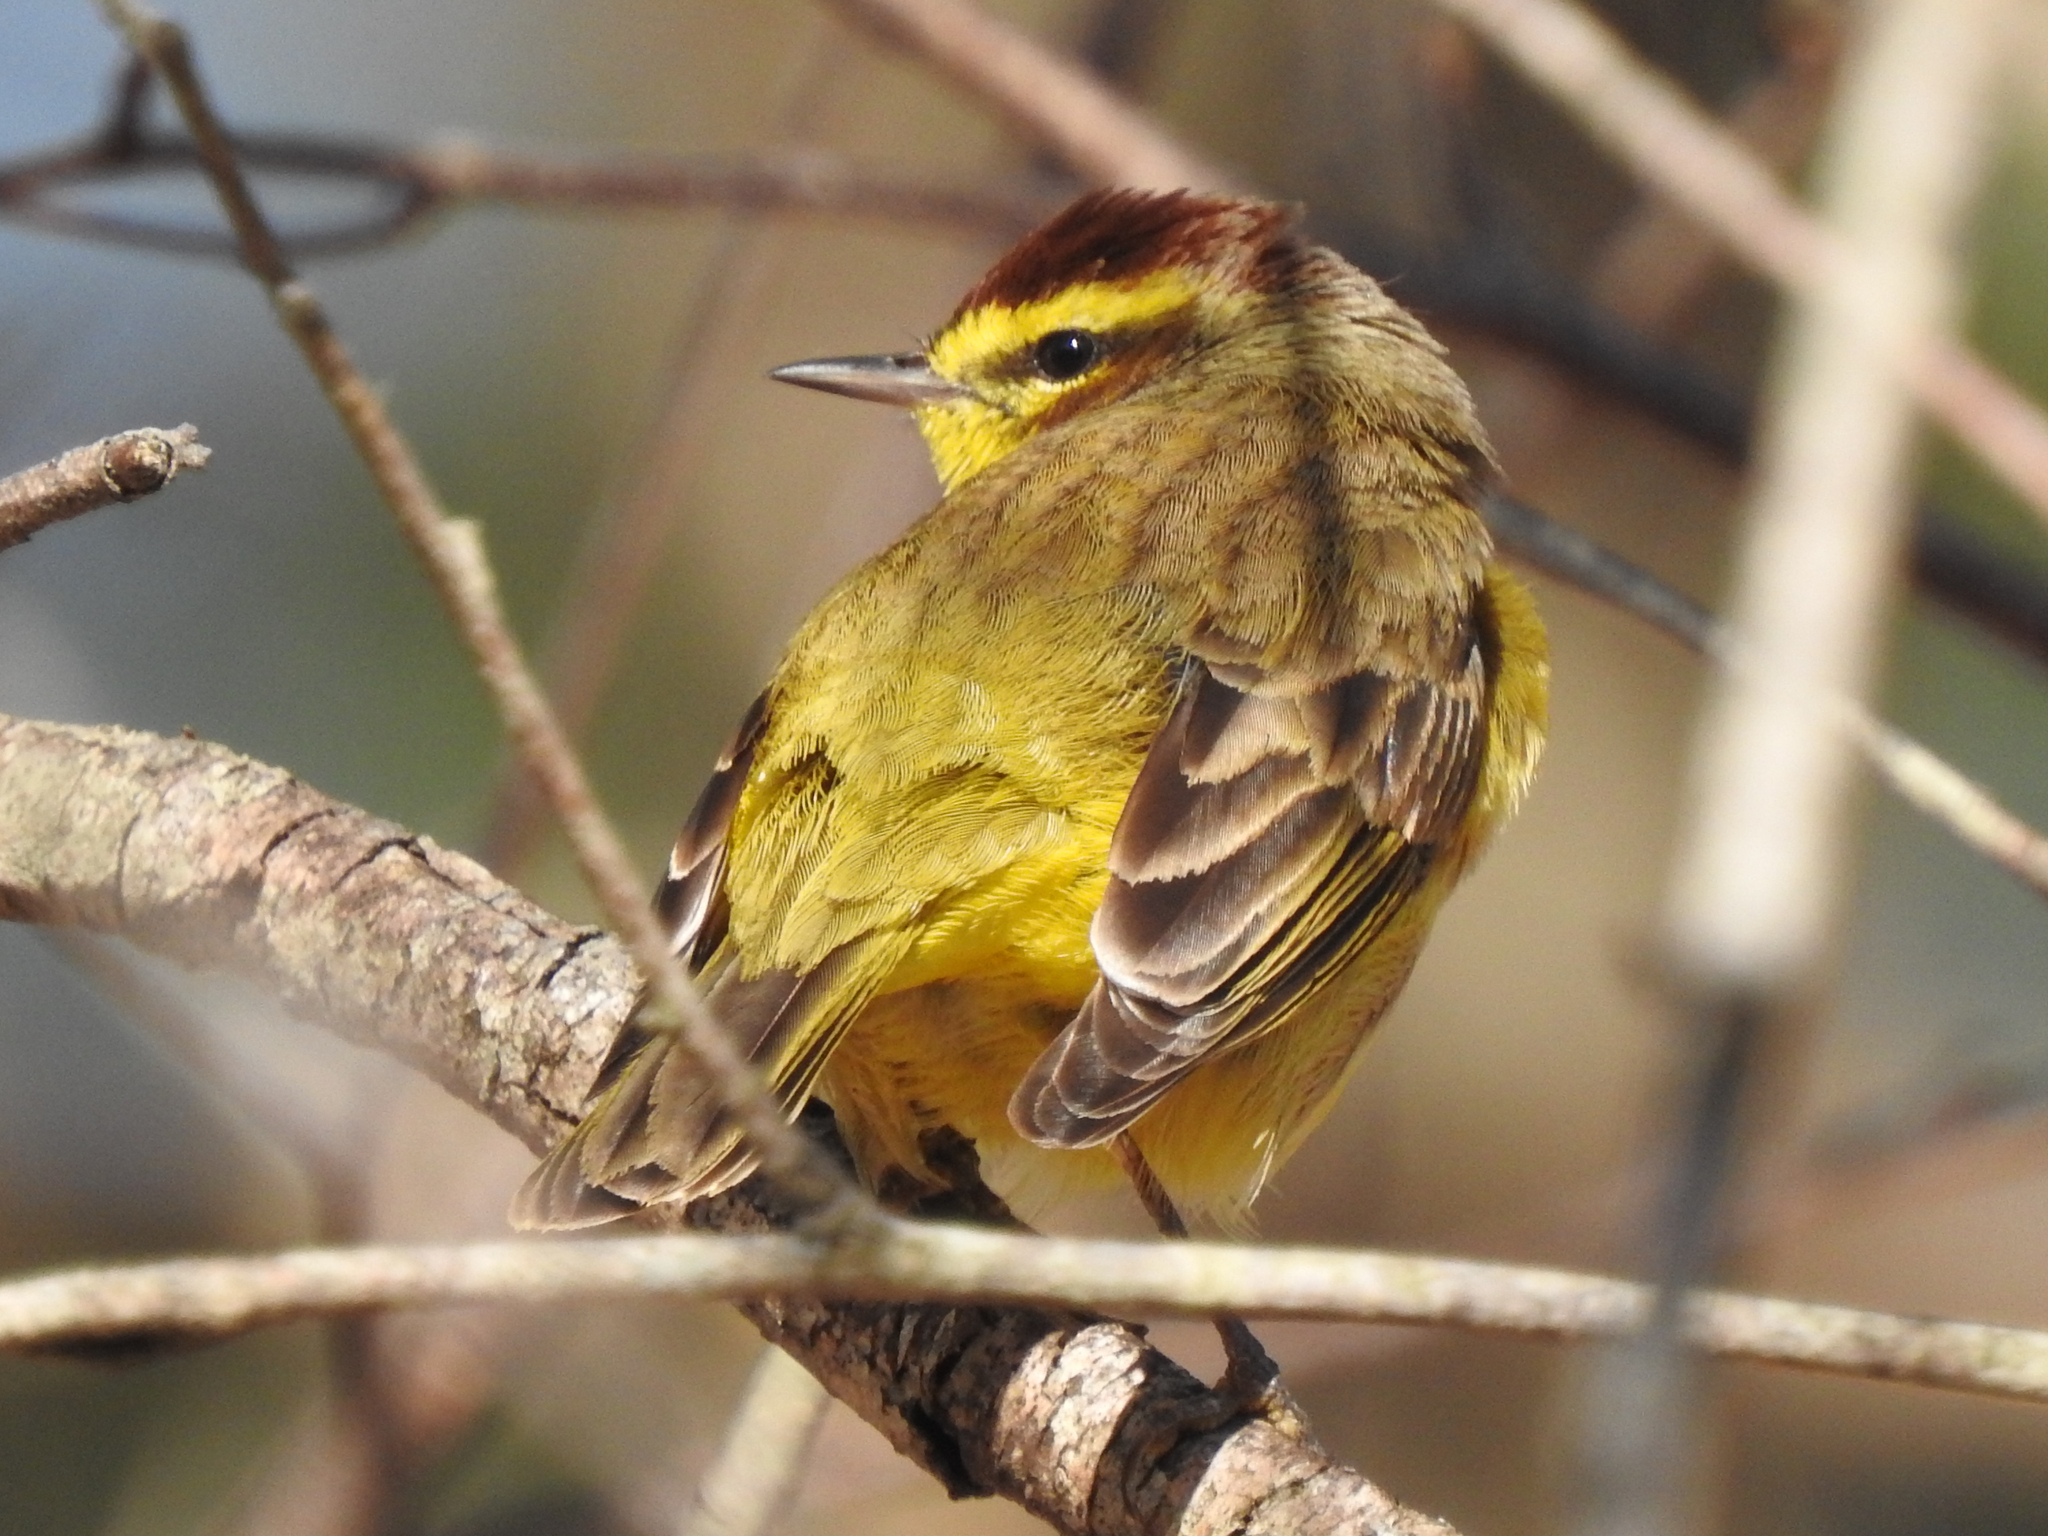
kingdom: Animalia
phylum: Chordata
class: Aves
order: Passeriformes
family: Parulidae
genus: Setophaga
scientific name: Setophaga palmarum
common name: Palm warbler
